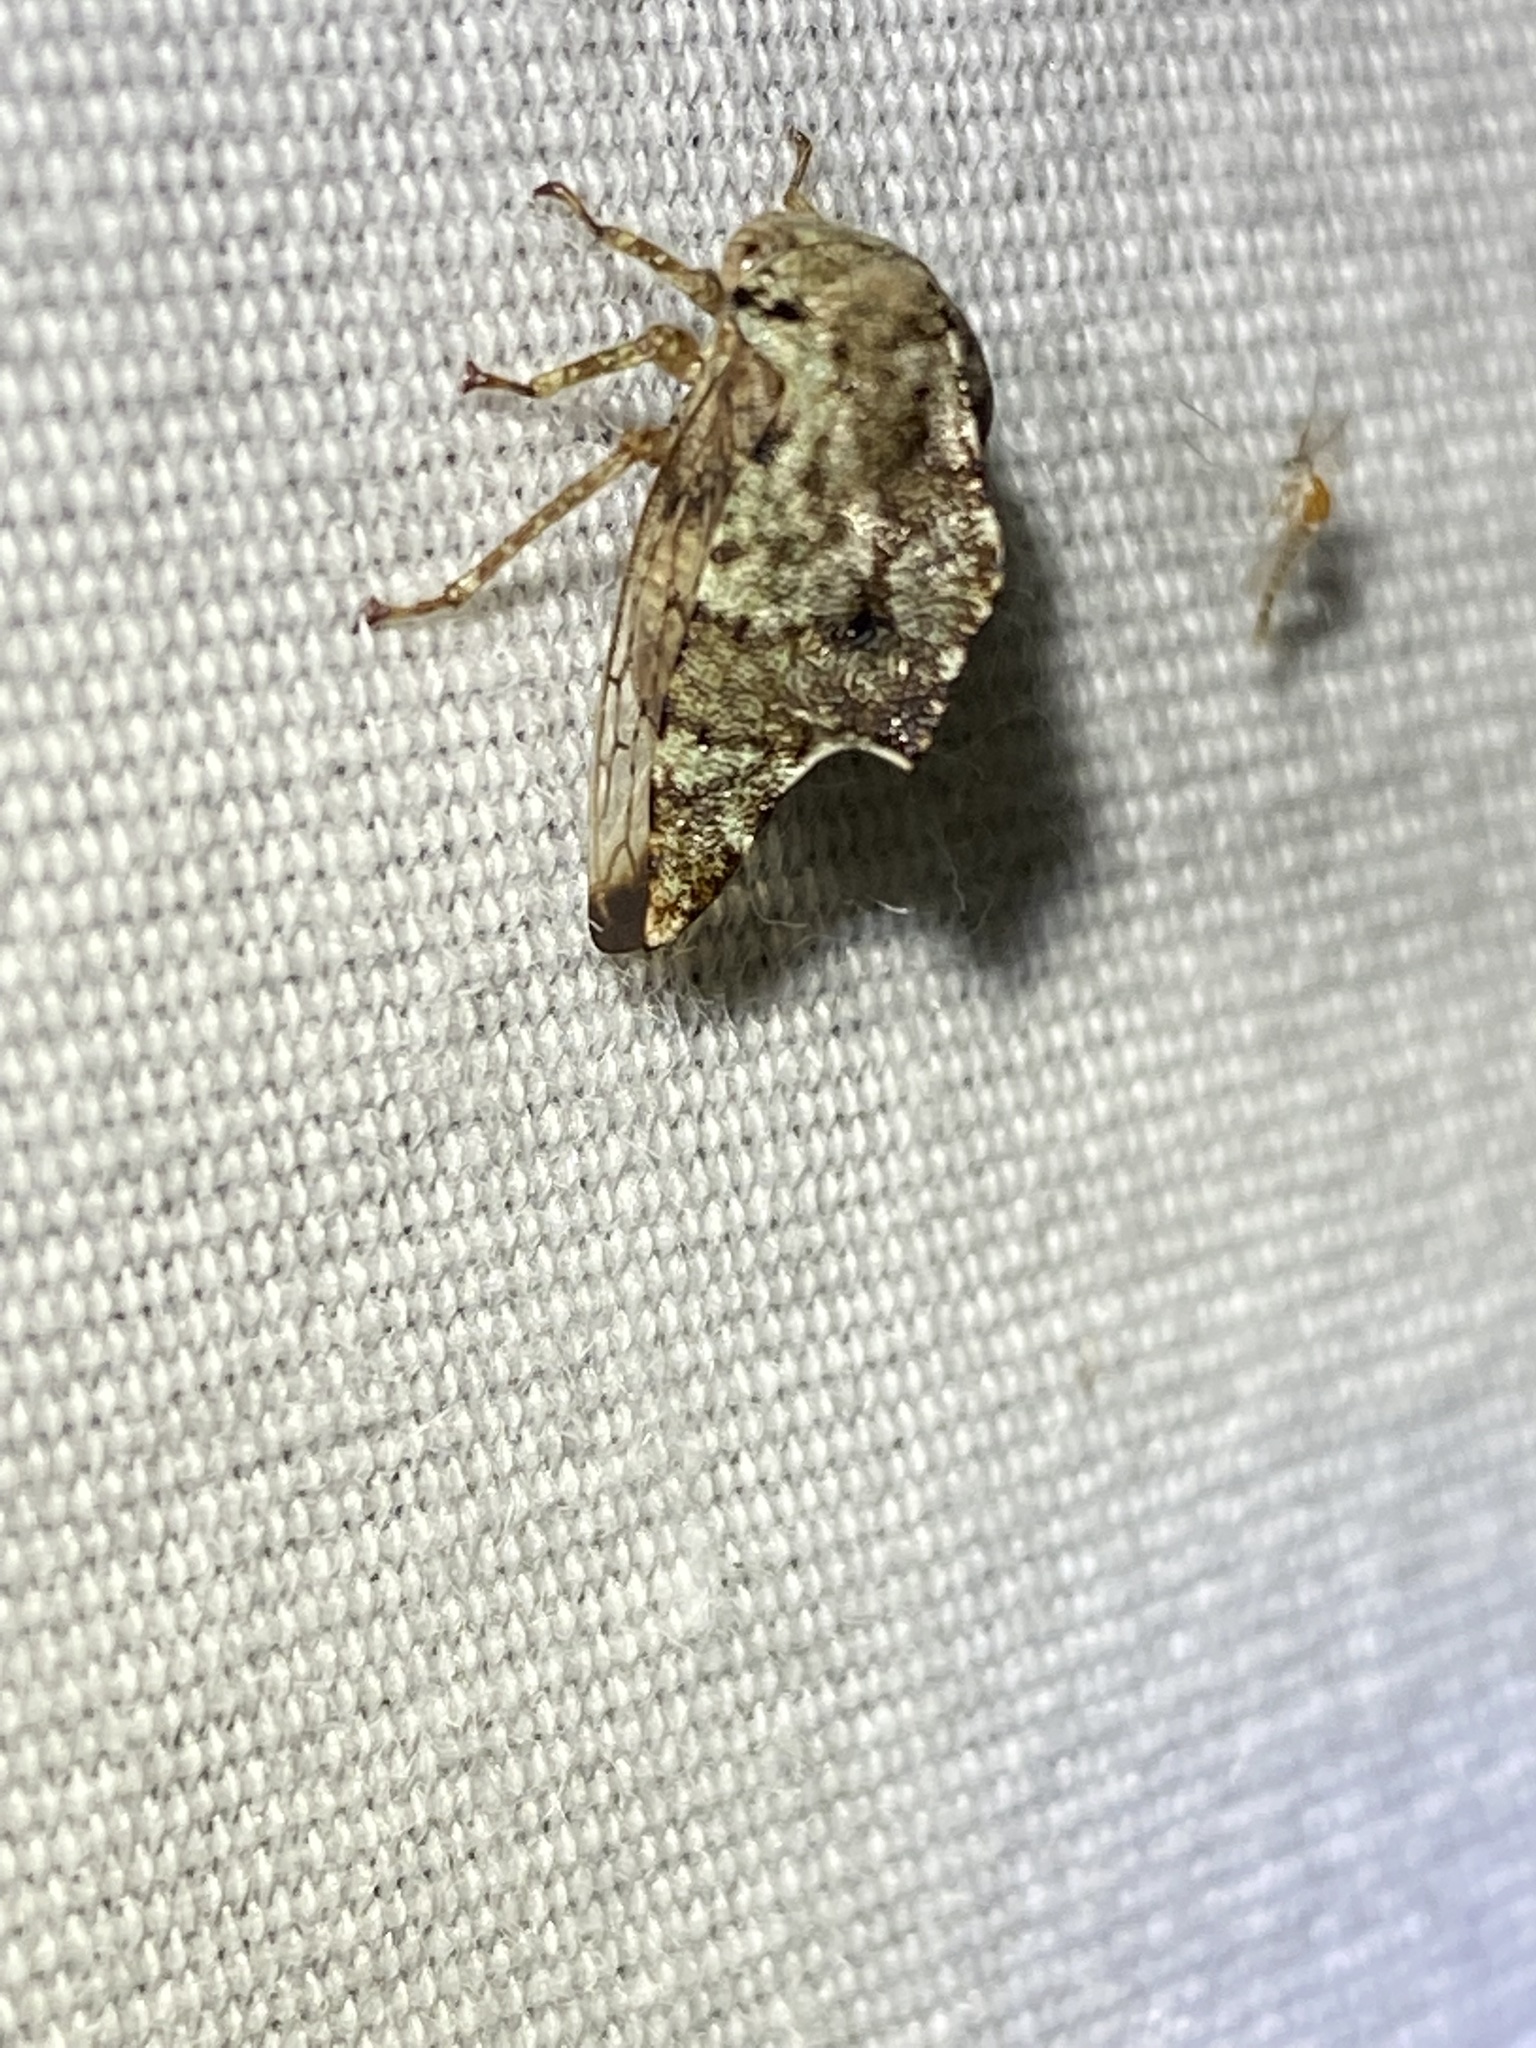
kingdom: Animalia
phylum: Arthropoda
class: Insecta
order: Hemiptera
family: Membracidae
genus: Telamona
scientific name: Telamona
